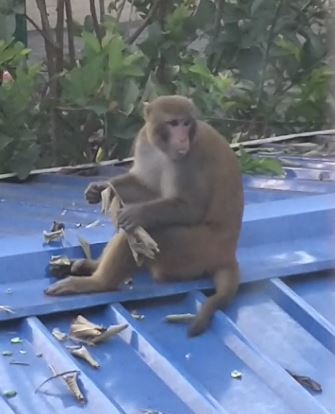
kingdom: Animalia
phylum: Chordata
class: Mammalia
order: Primates
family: Cercopithecidae
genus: Macaca
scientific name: Macaca mulatta
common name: Rhesus monkey
